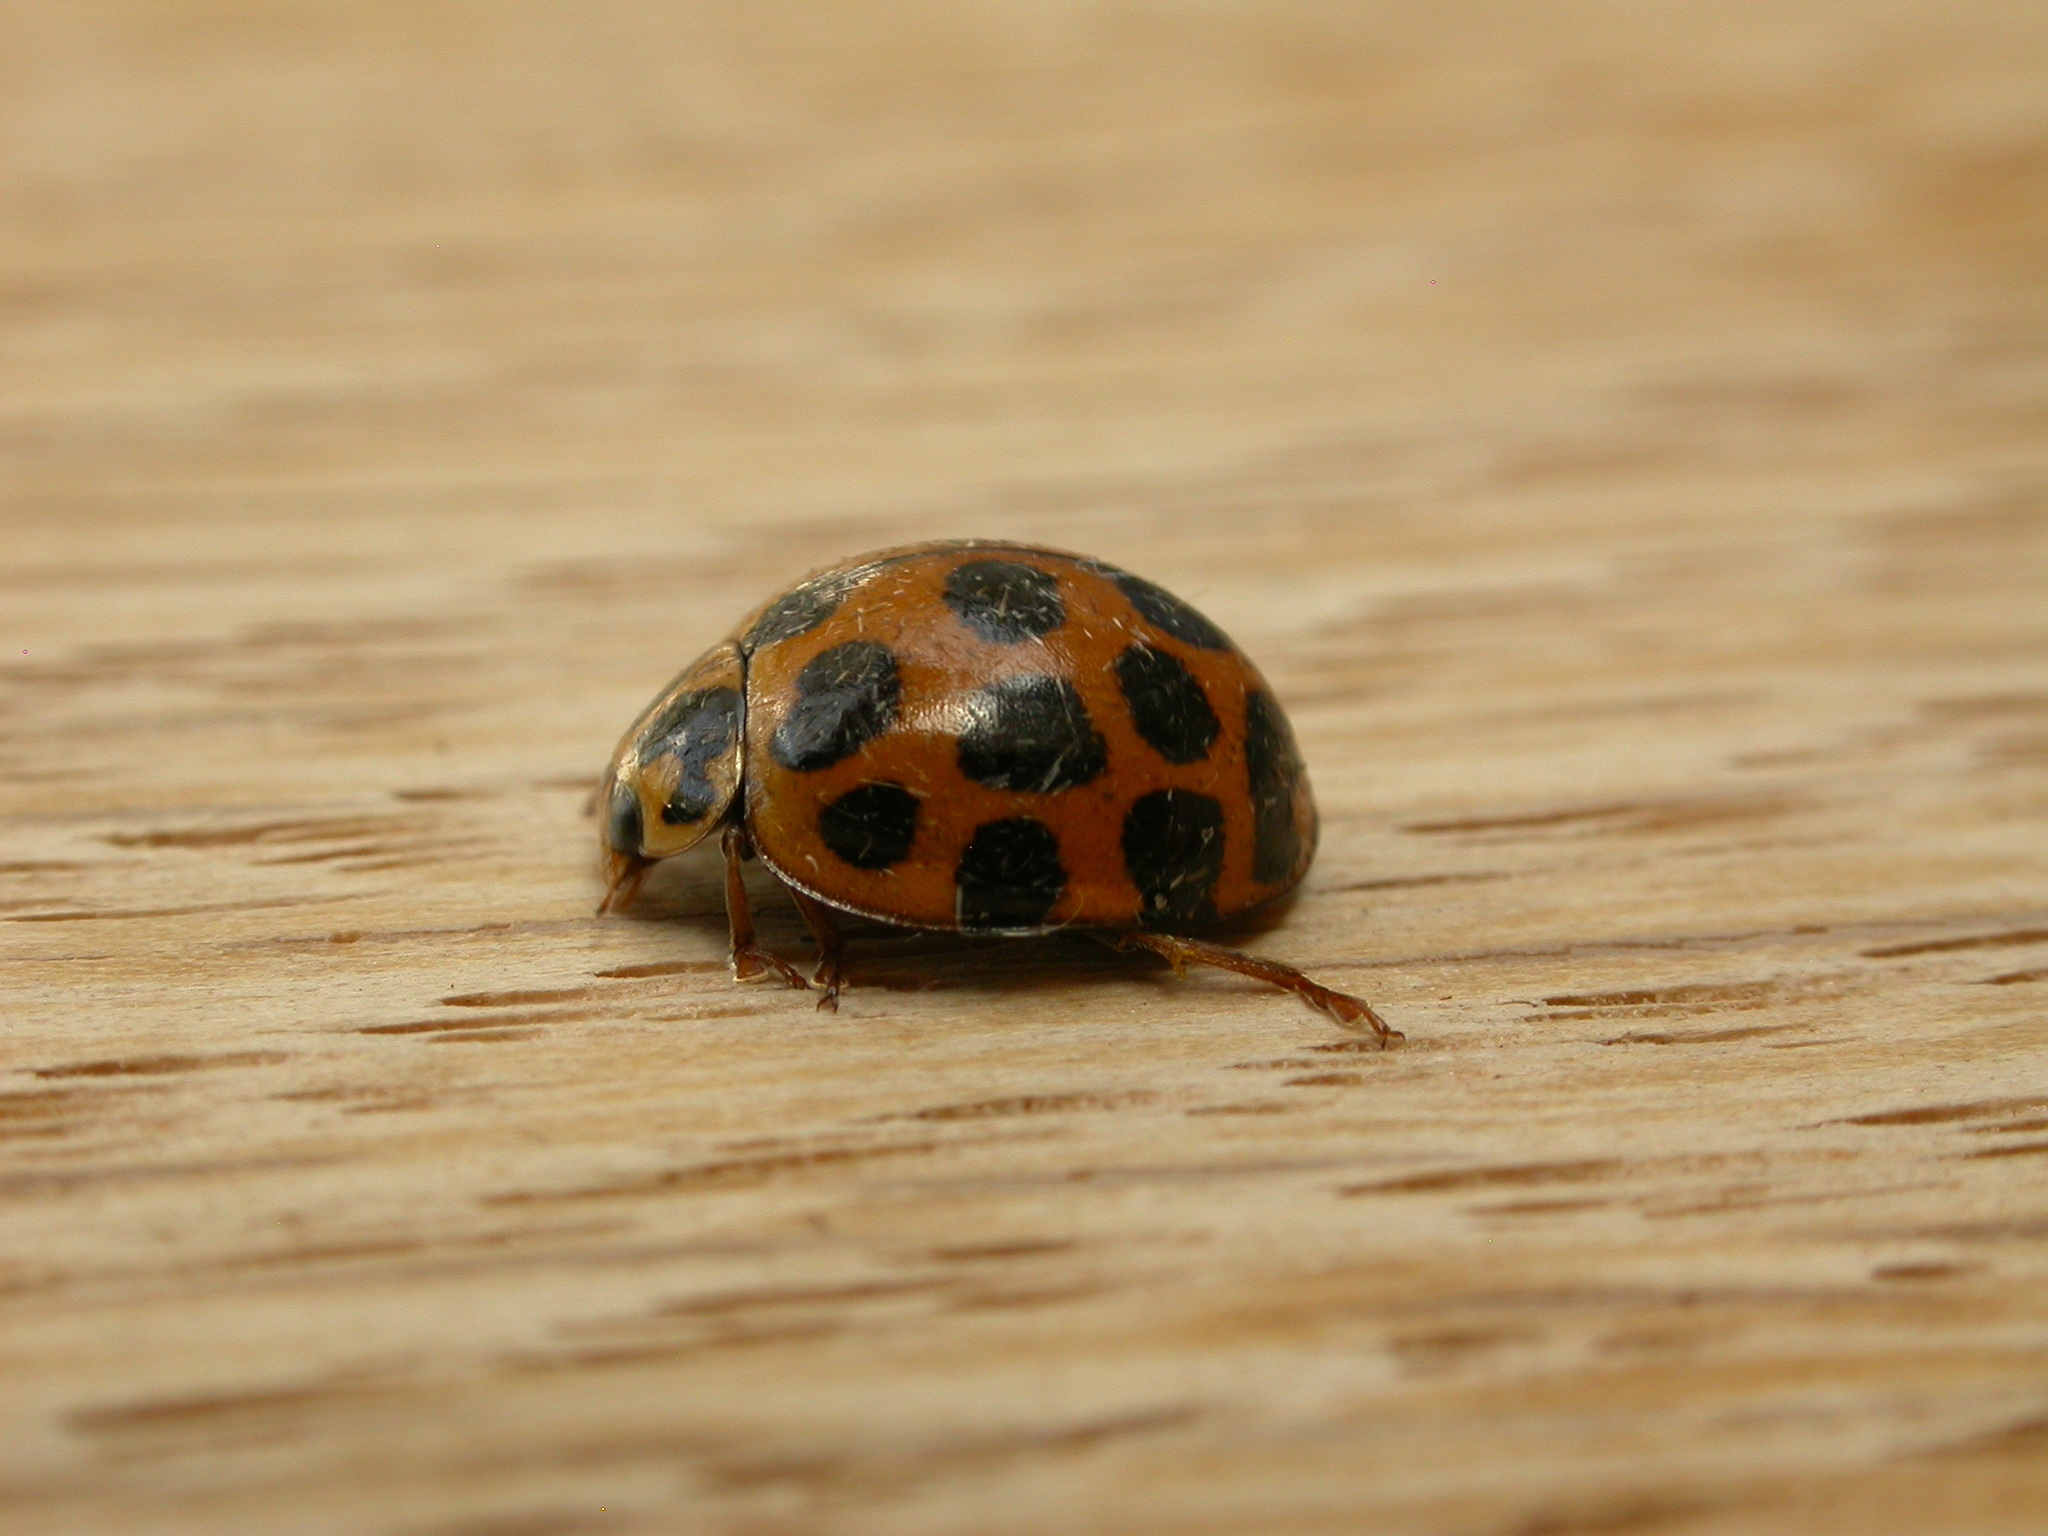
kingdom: Animalia
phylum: Arthropoda
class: Insecta
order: Coleoptera
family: Coccinellidae
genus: Harmonia
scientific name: Harmonia conformis
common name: Common spotted ladybird beetle
